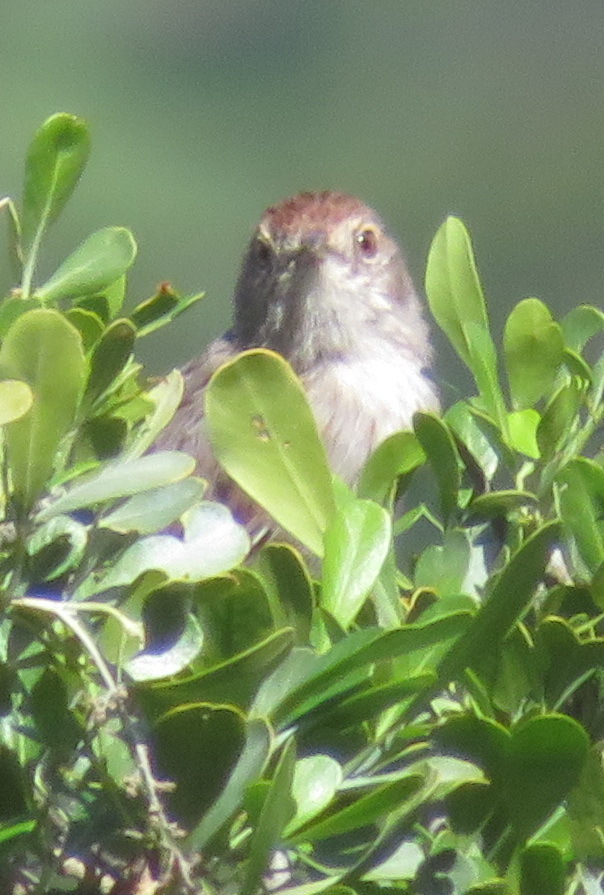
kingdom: Animalia
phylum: Chordata
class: Aves
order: Passeriformes
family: Cisticolidae
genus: Cisticola
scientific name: Cisticola subruficapilla
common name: Grey-backed cisticola
